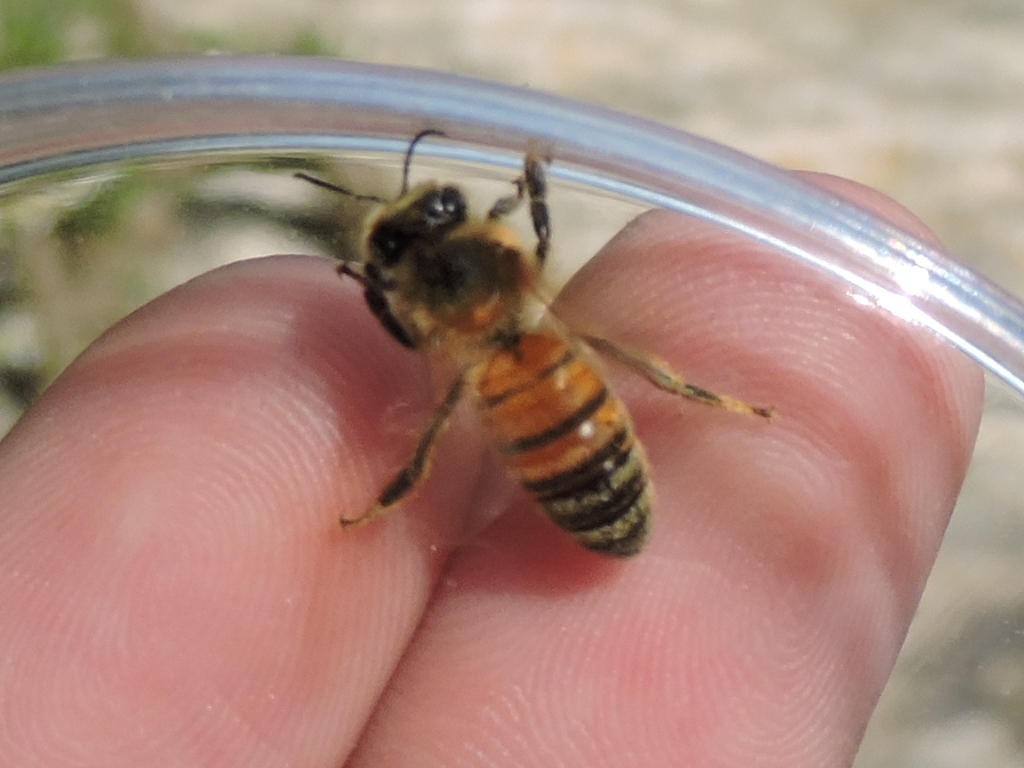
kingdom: Animalia
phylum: Arthropoda
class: Insecta
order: Hymenoptera
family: Apidae
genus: Apis
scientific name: Apis mellifera
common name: Honey bee
